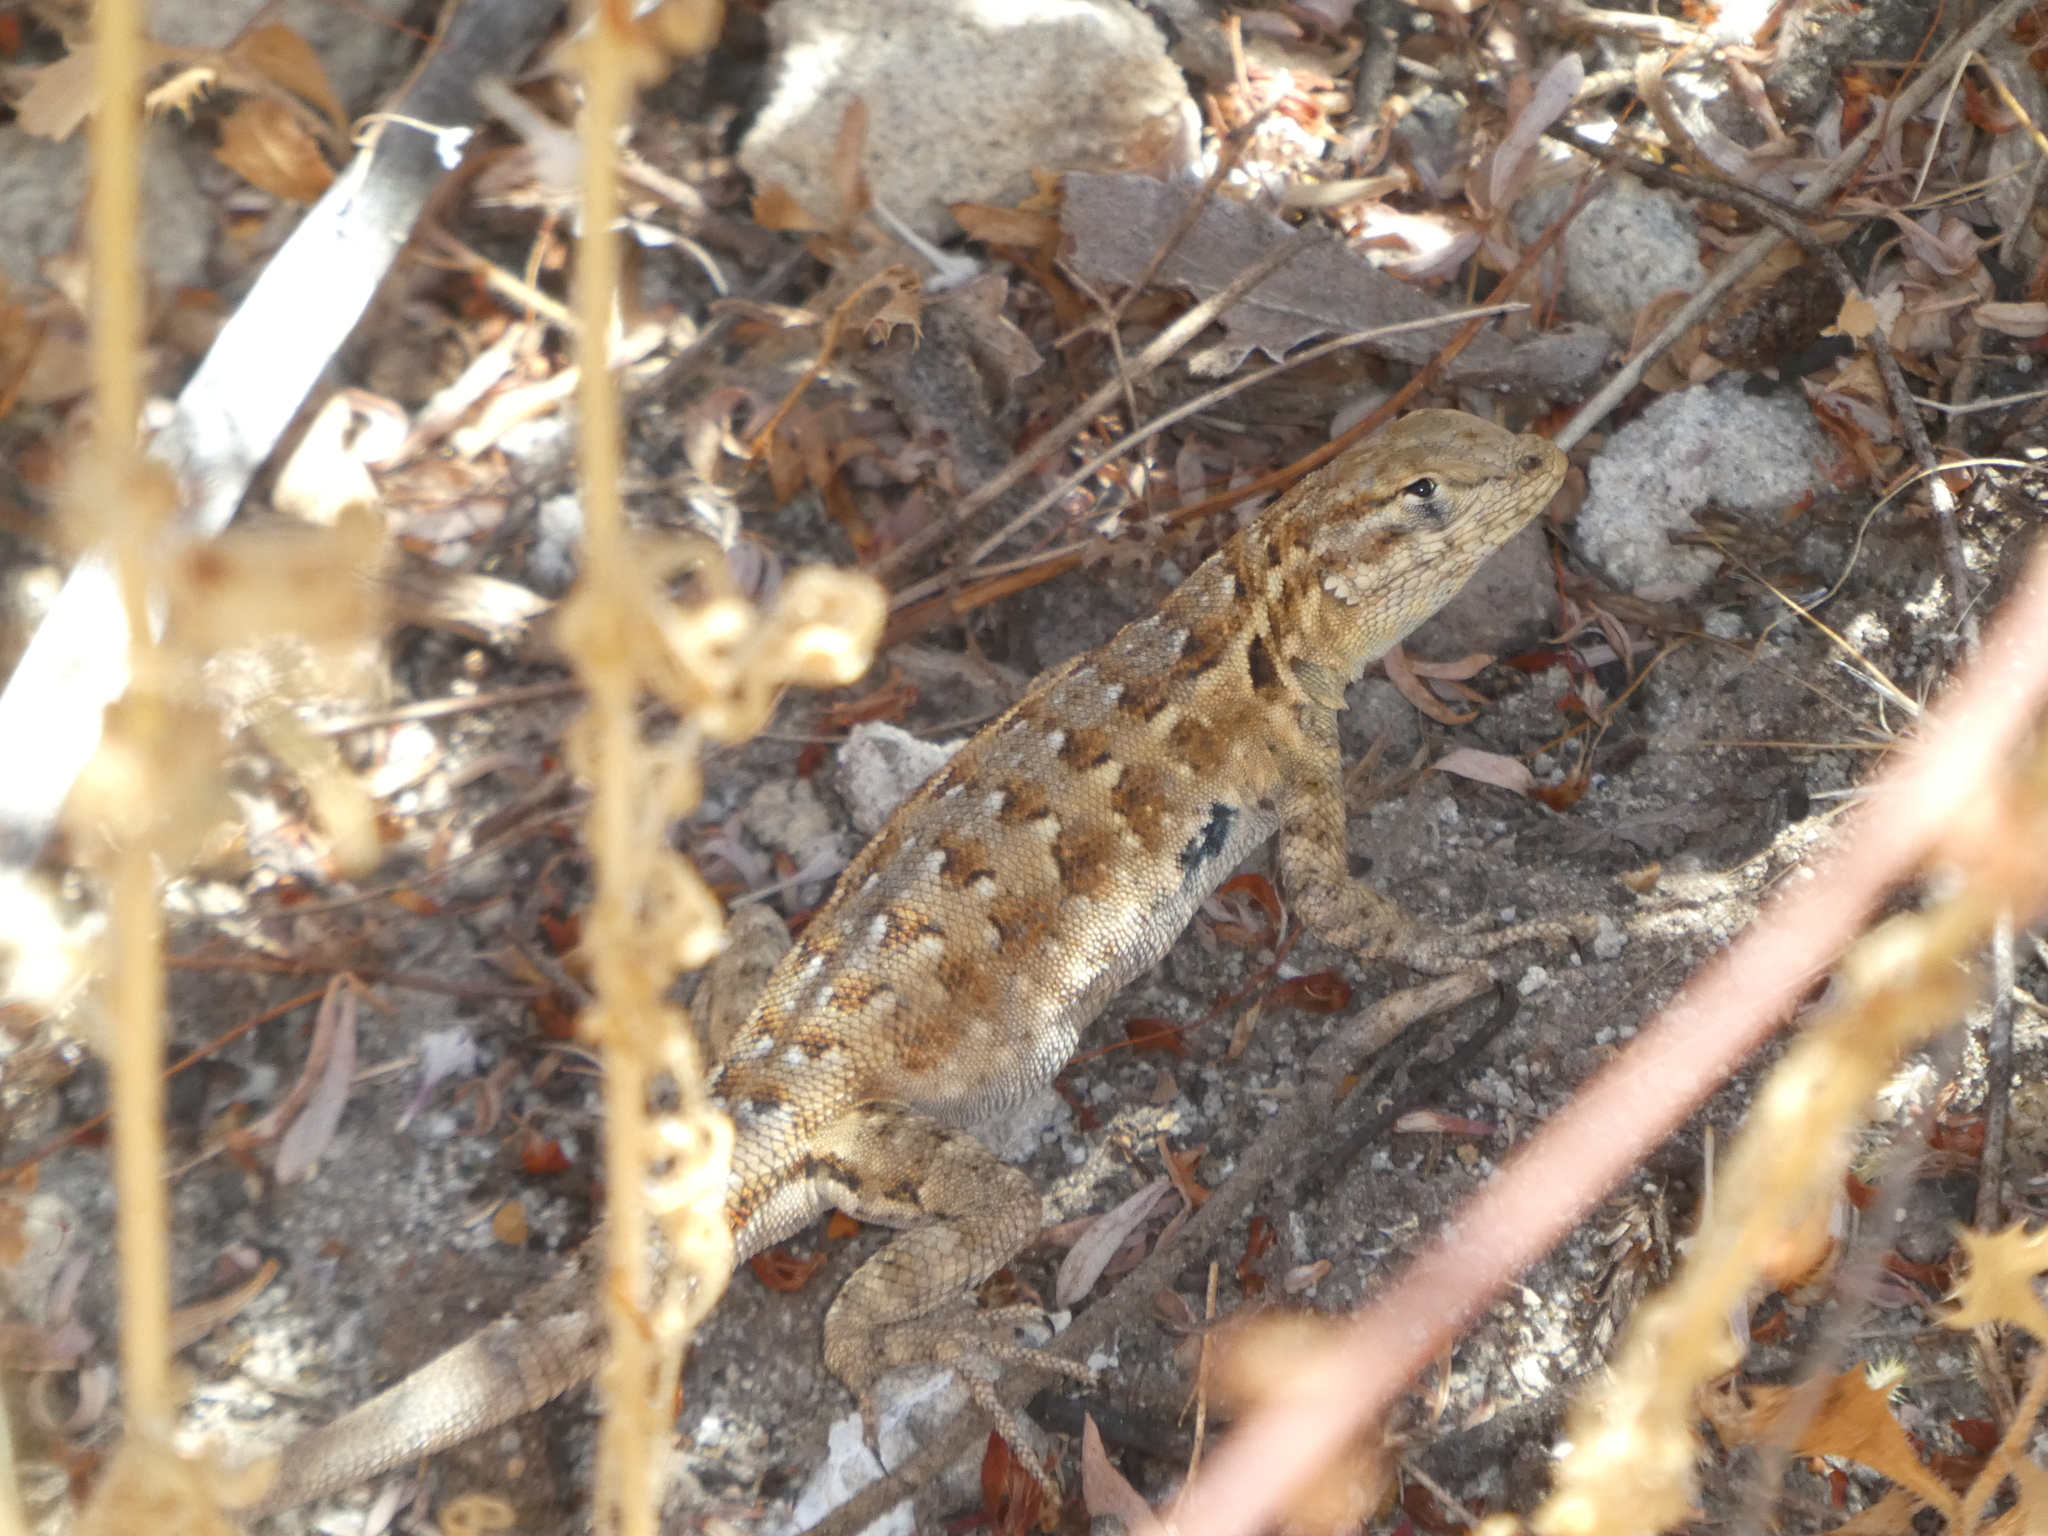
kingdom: Animalia
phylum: Chordata
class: Squamata
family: Phrynosomatidae
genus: Uta
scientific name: Uta stansburiana
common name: Side-blotched lizard
